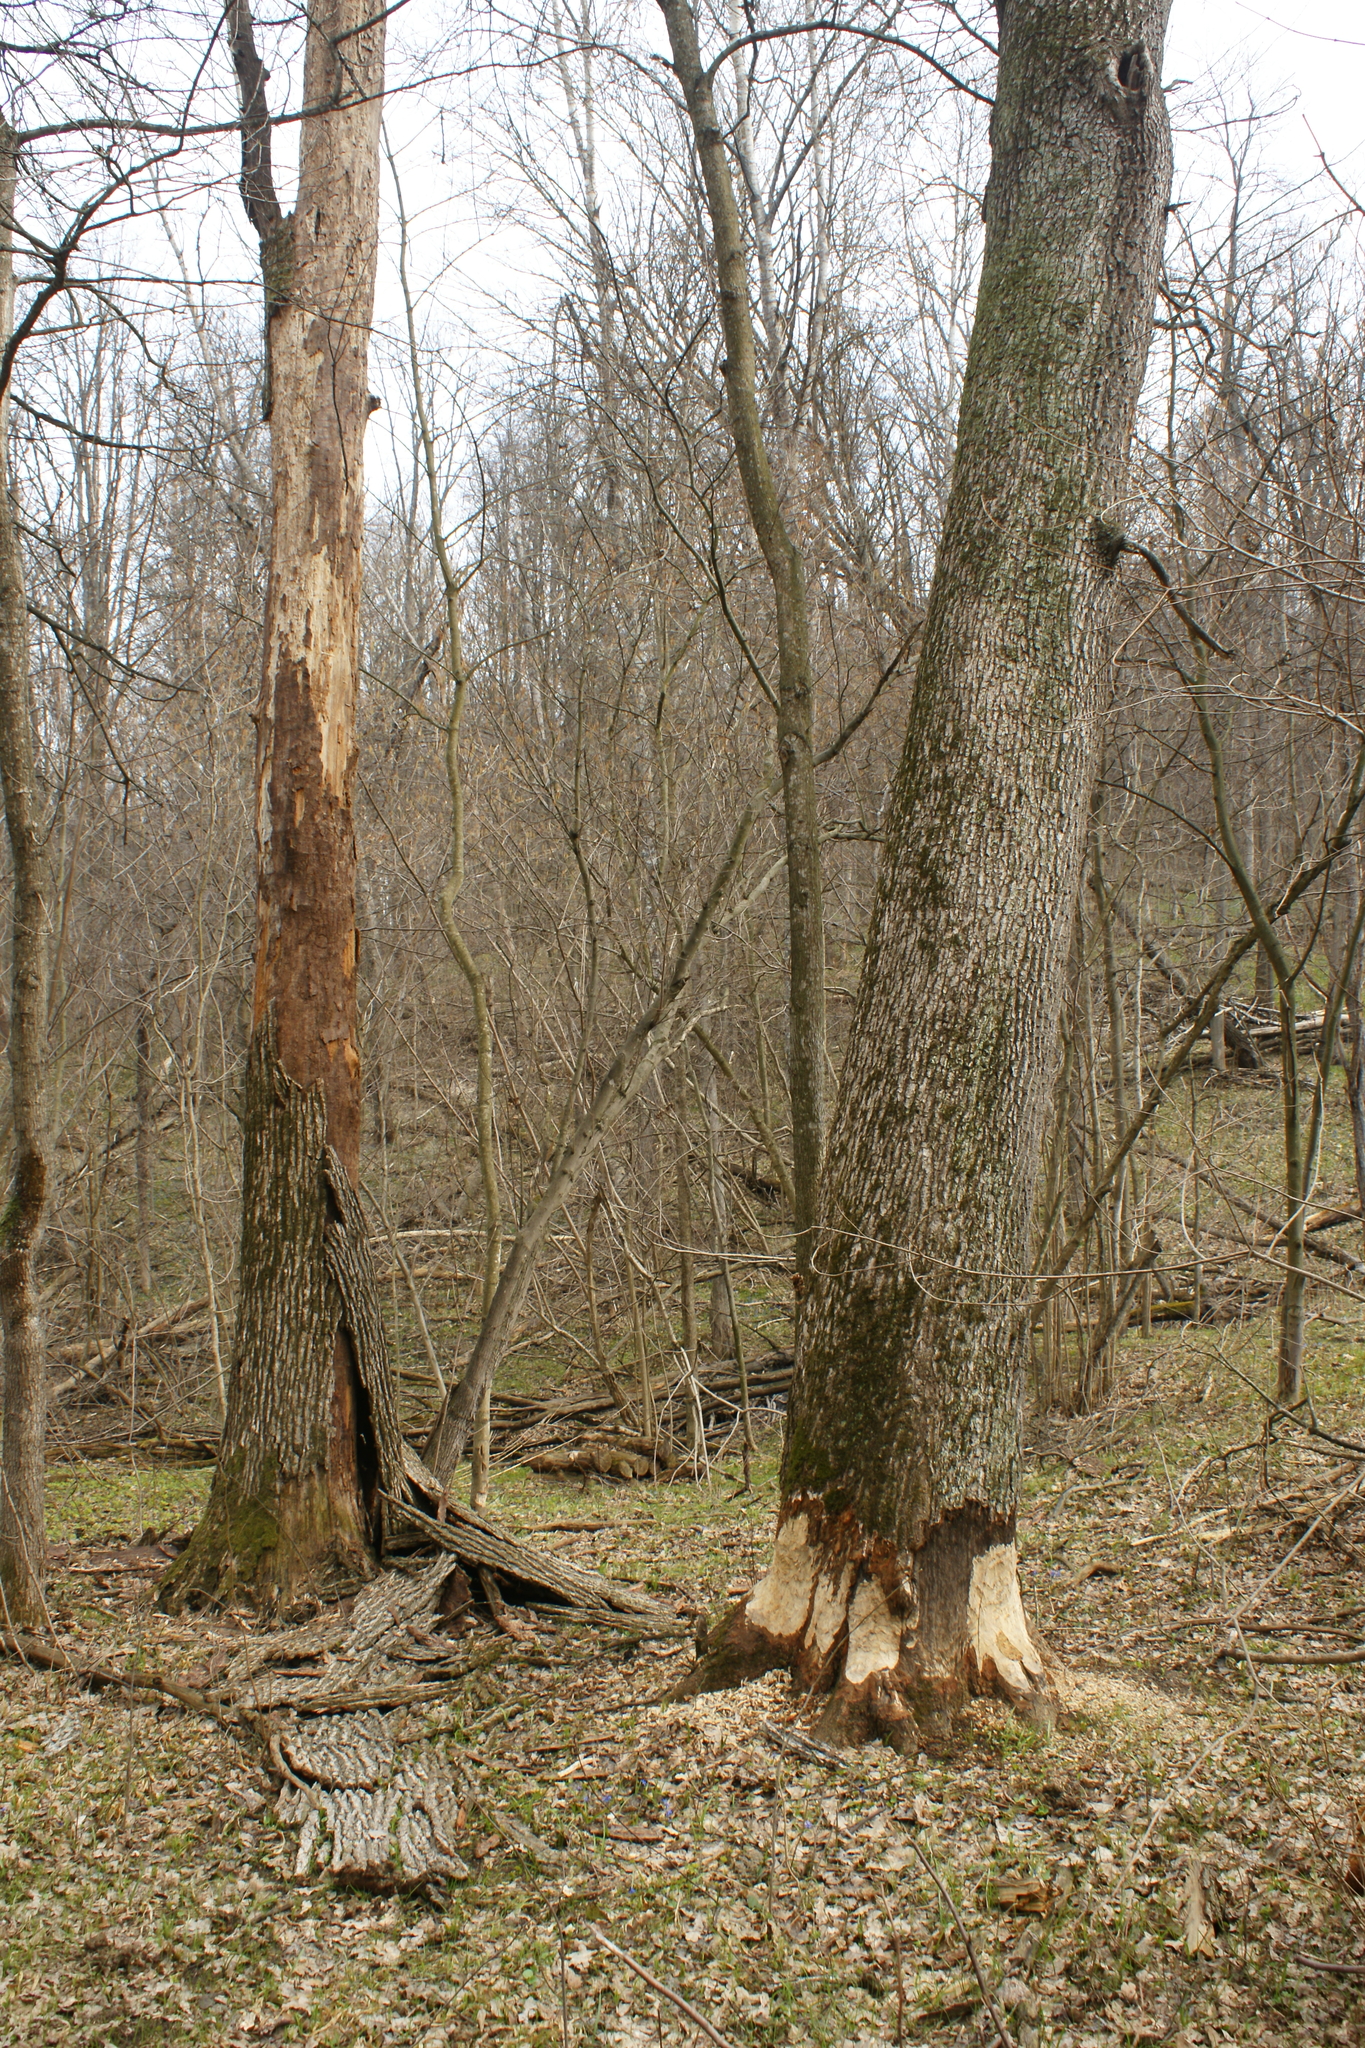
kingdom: Animalia
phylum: Chordata
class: Mammalia
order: Rodentia
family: Castoridae
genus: Castor
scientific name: Castor fiber
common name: Eurasian beaver
